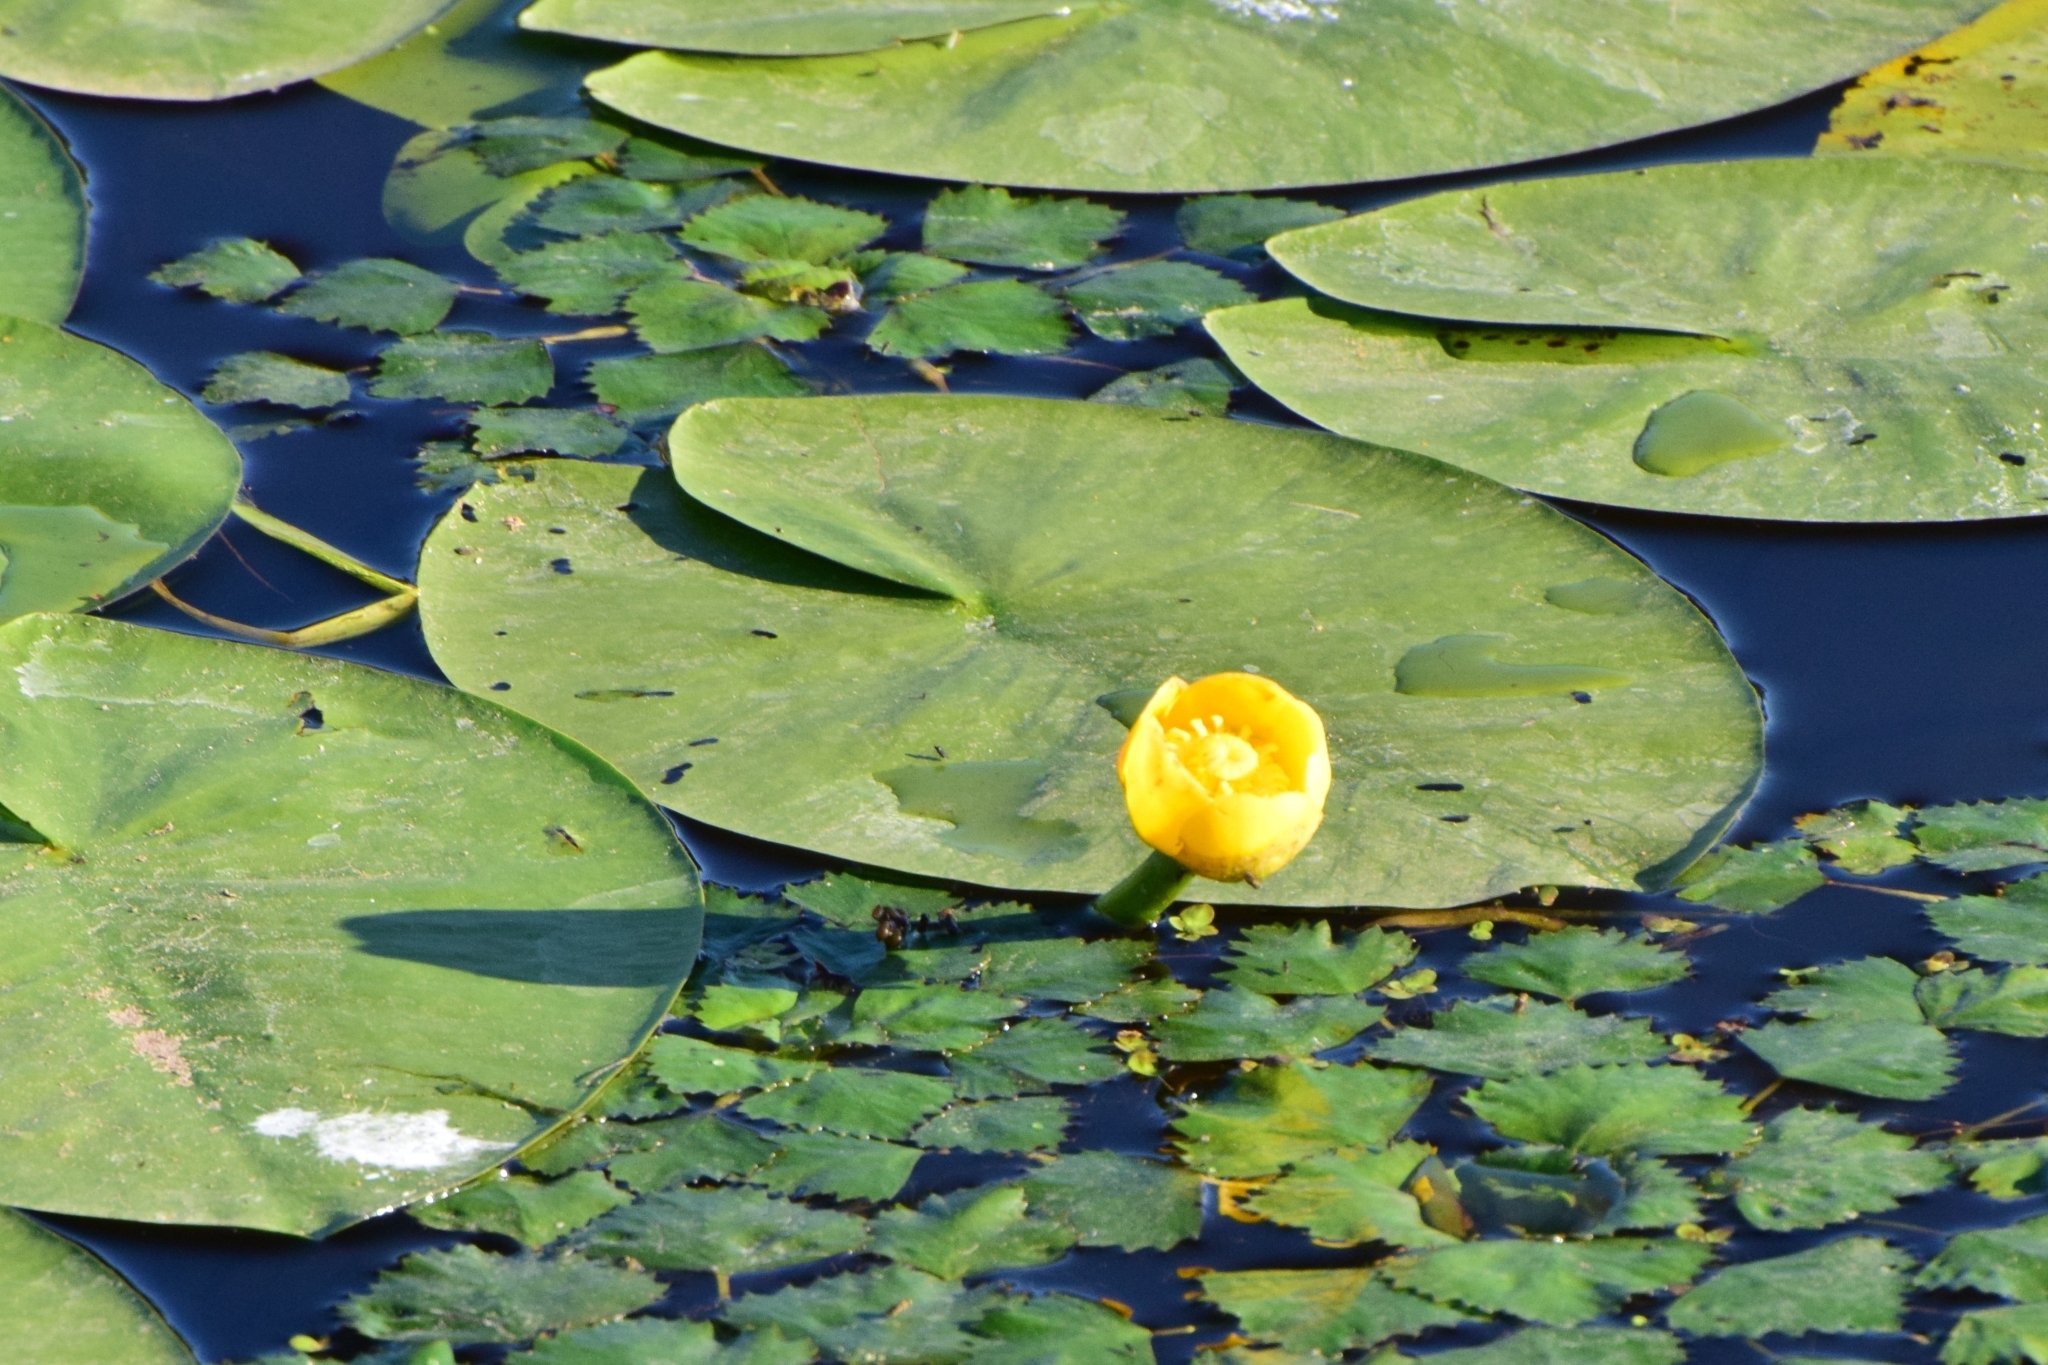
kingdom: Plantae
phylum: Tracheophyta
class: Magnoliopsida
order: Nymphaeales
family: Nymphaeaceae
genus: Nuphar
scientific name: Nuphar lutea
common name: Yellow water-lily
